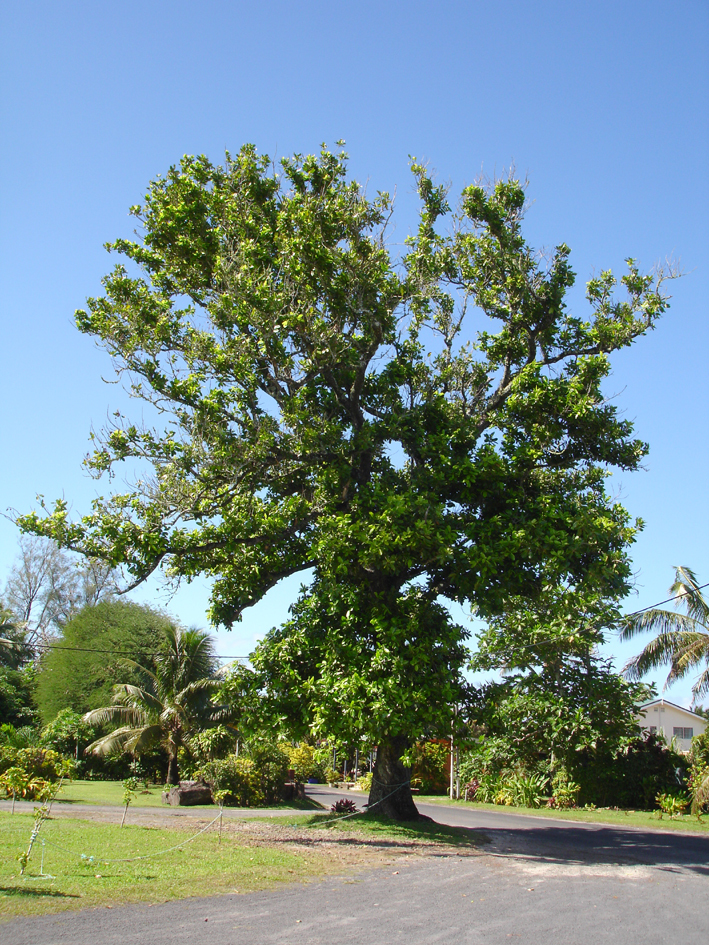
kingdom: Plantae
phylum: Tracheophyta
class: Magnoliopsida
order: Malpighiales
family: Calophyllaceae
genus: Calophyllum
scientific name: Calophyllum inophyllum
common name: Alexandrian laurel
